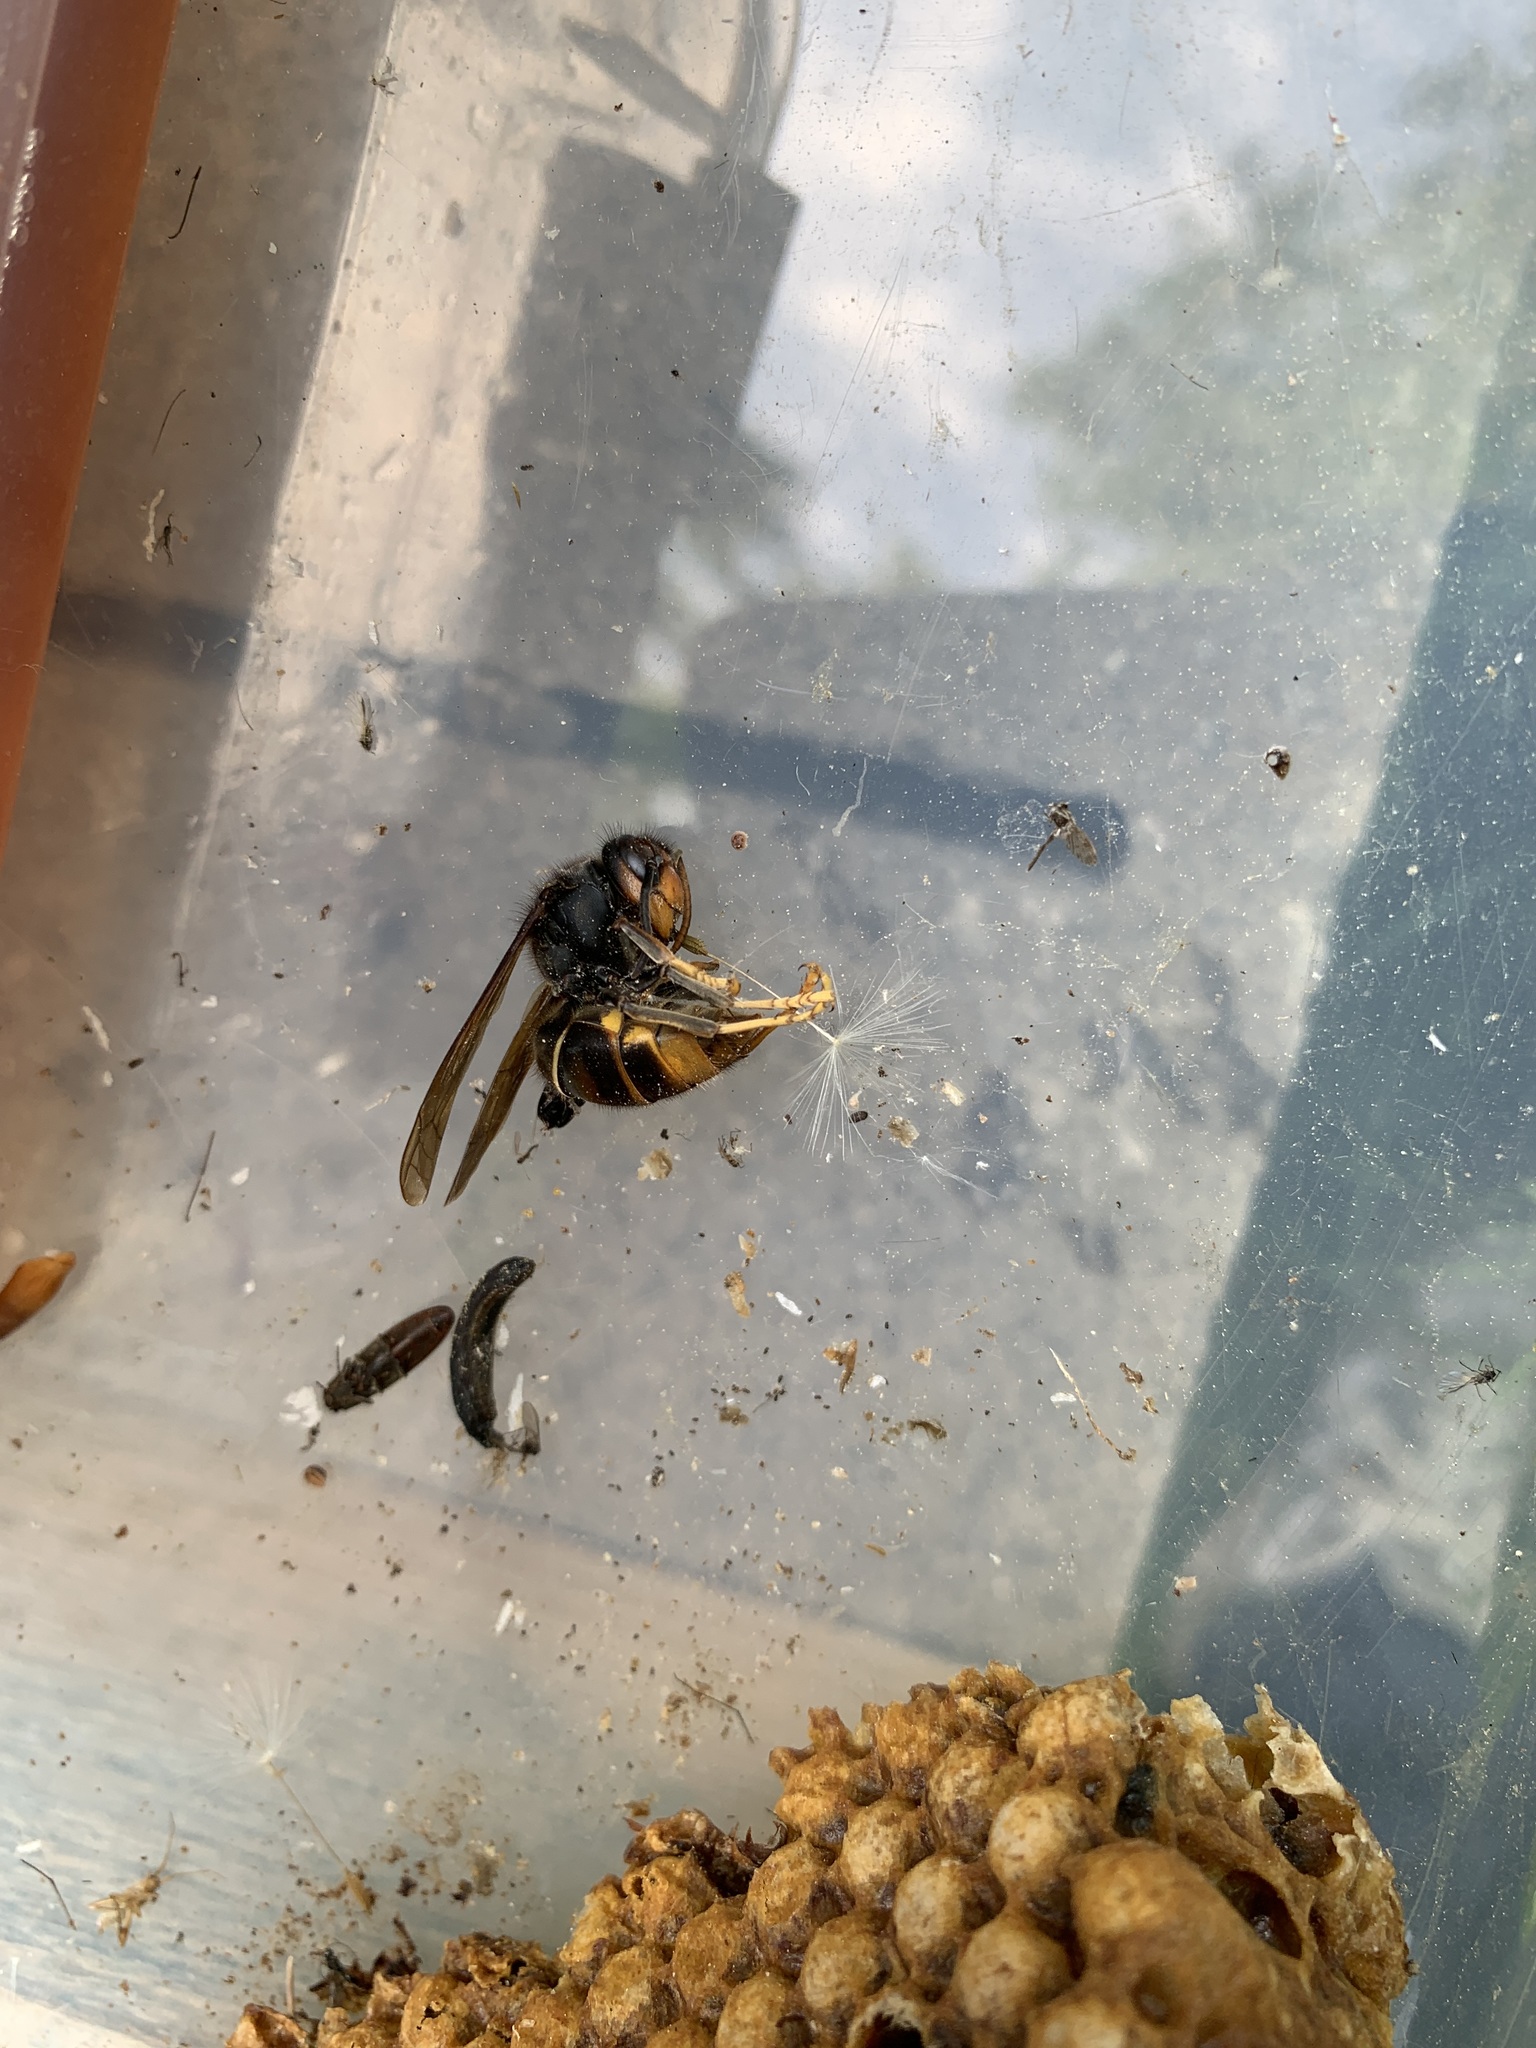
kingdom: Animalia
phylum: Arthropoda
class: Insecta
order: Hymenoptera
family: Vespidae
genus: Vespa
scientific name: Vespa velutina
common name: Asian hornet
